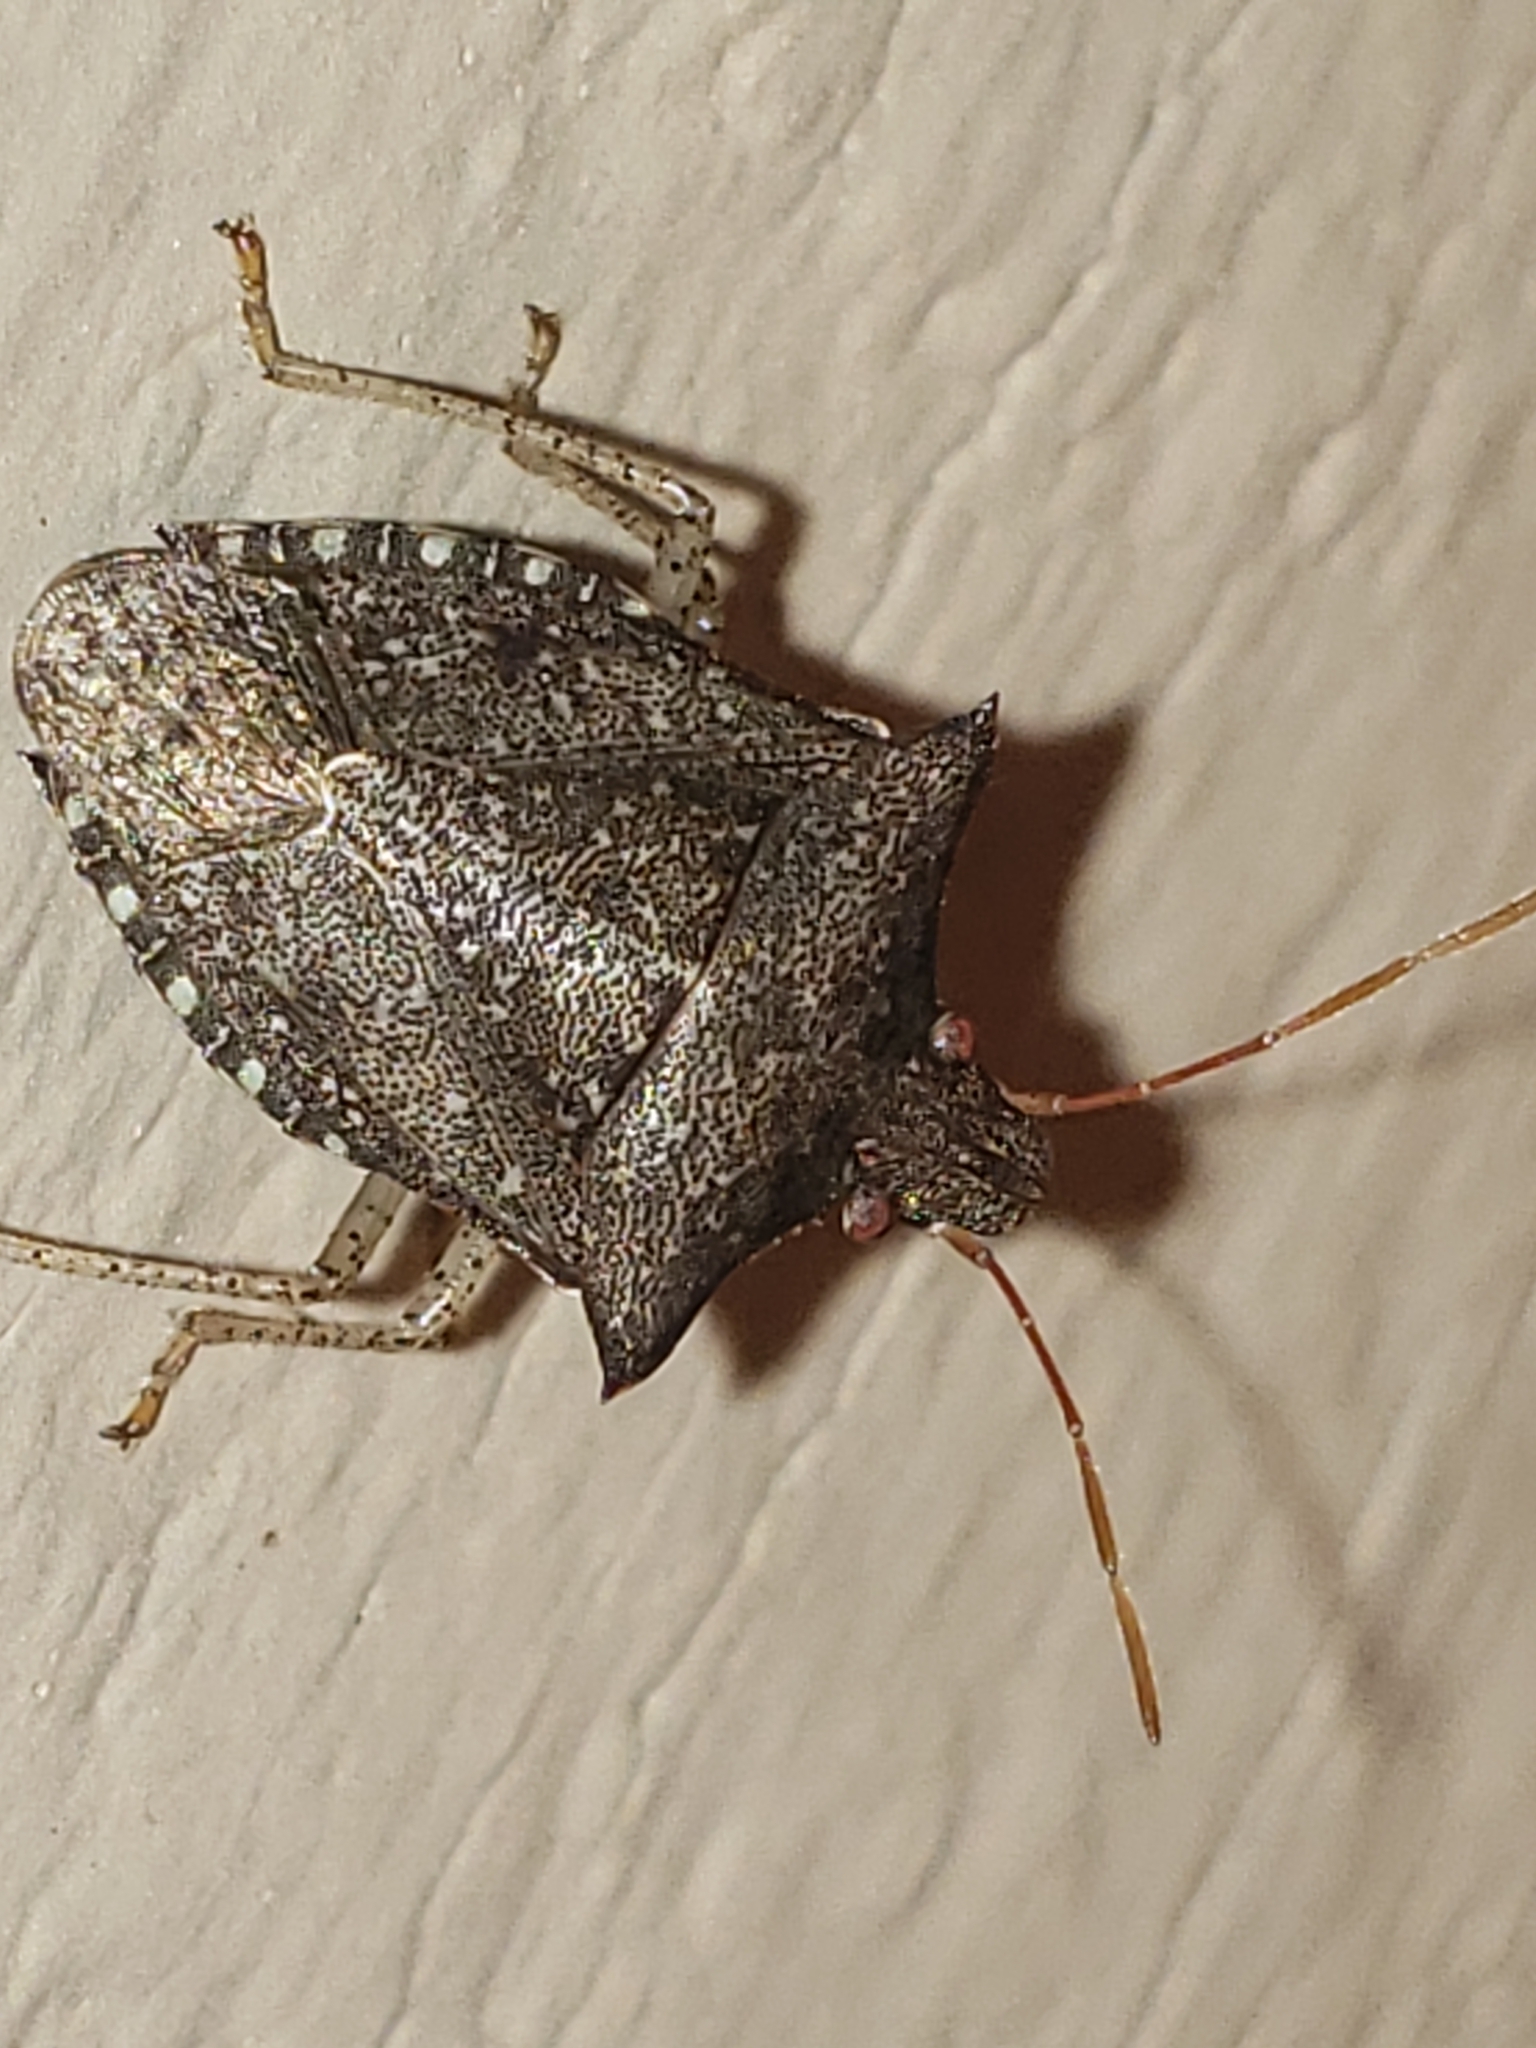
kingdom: Animalia
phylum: Arthropoda
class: Insecta
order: Hemiptera
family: Pentatomidae
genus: Euschistus
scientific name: Euschistus tristigmus
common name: Dusky stink bug
